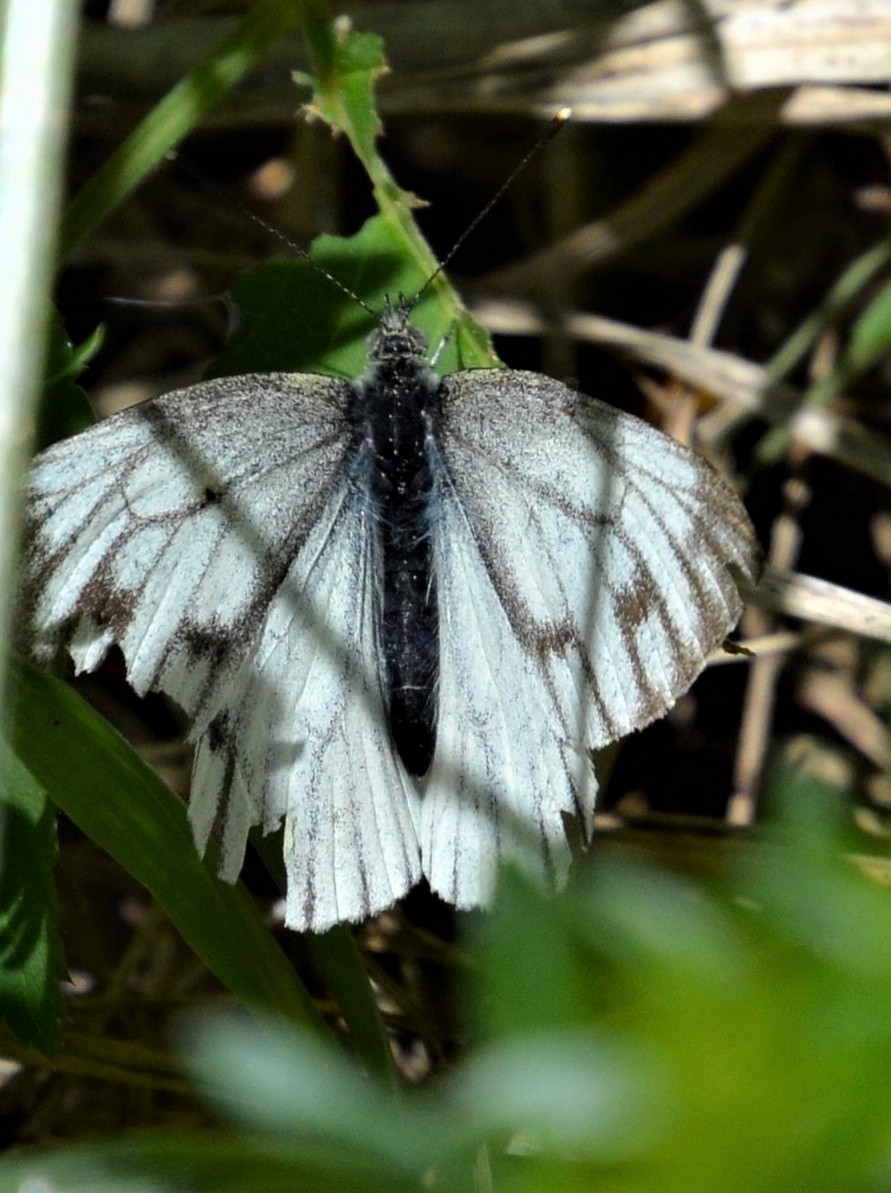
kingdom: Animalia
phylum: Arthropoda
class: Insecta
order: Lepidoptera
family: Pieridae
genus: Pieris
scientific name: Pieris napi
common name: Green-veined white
